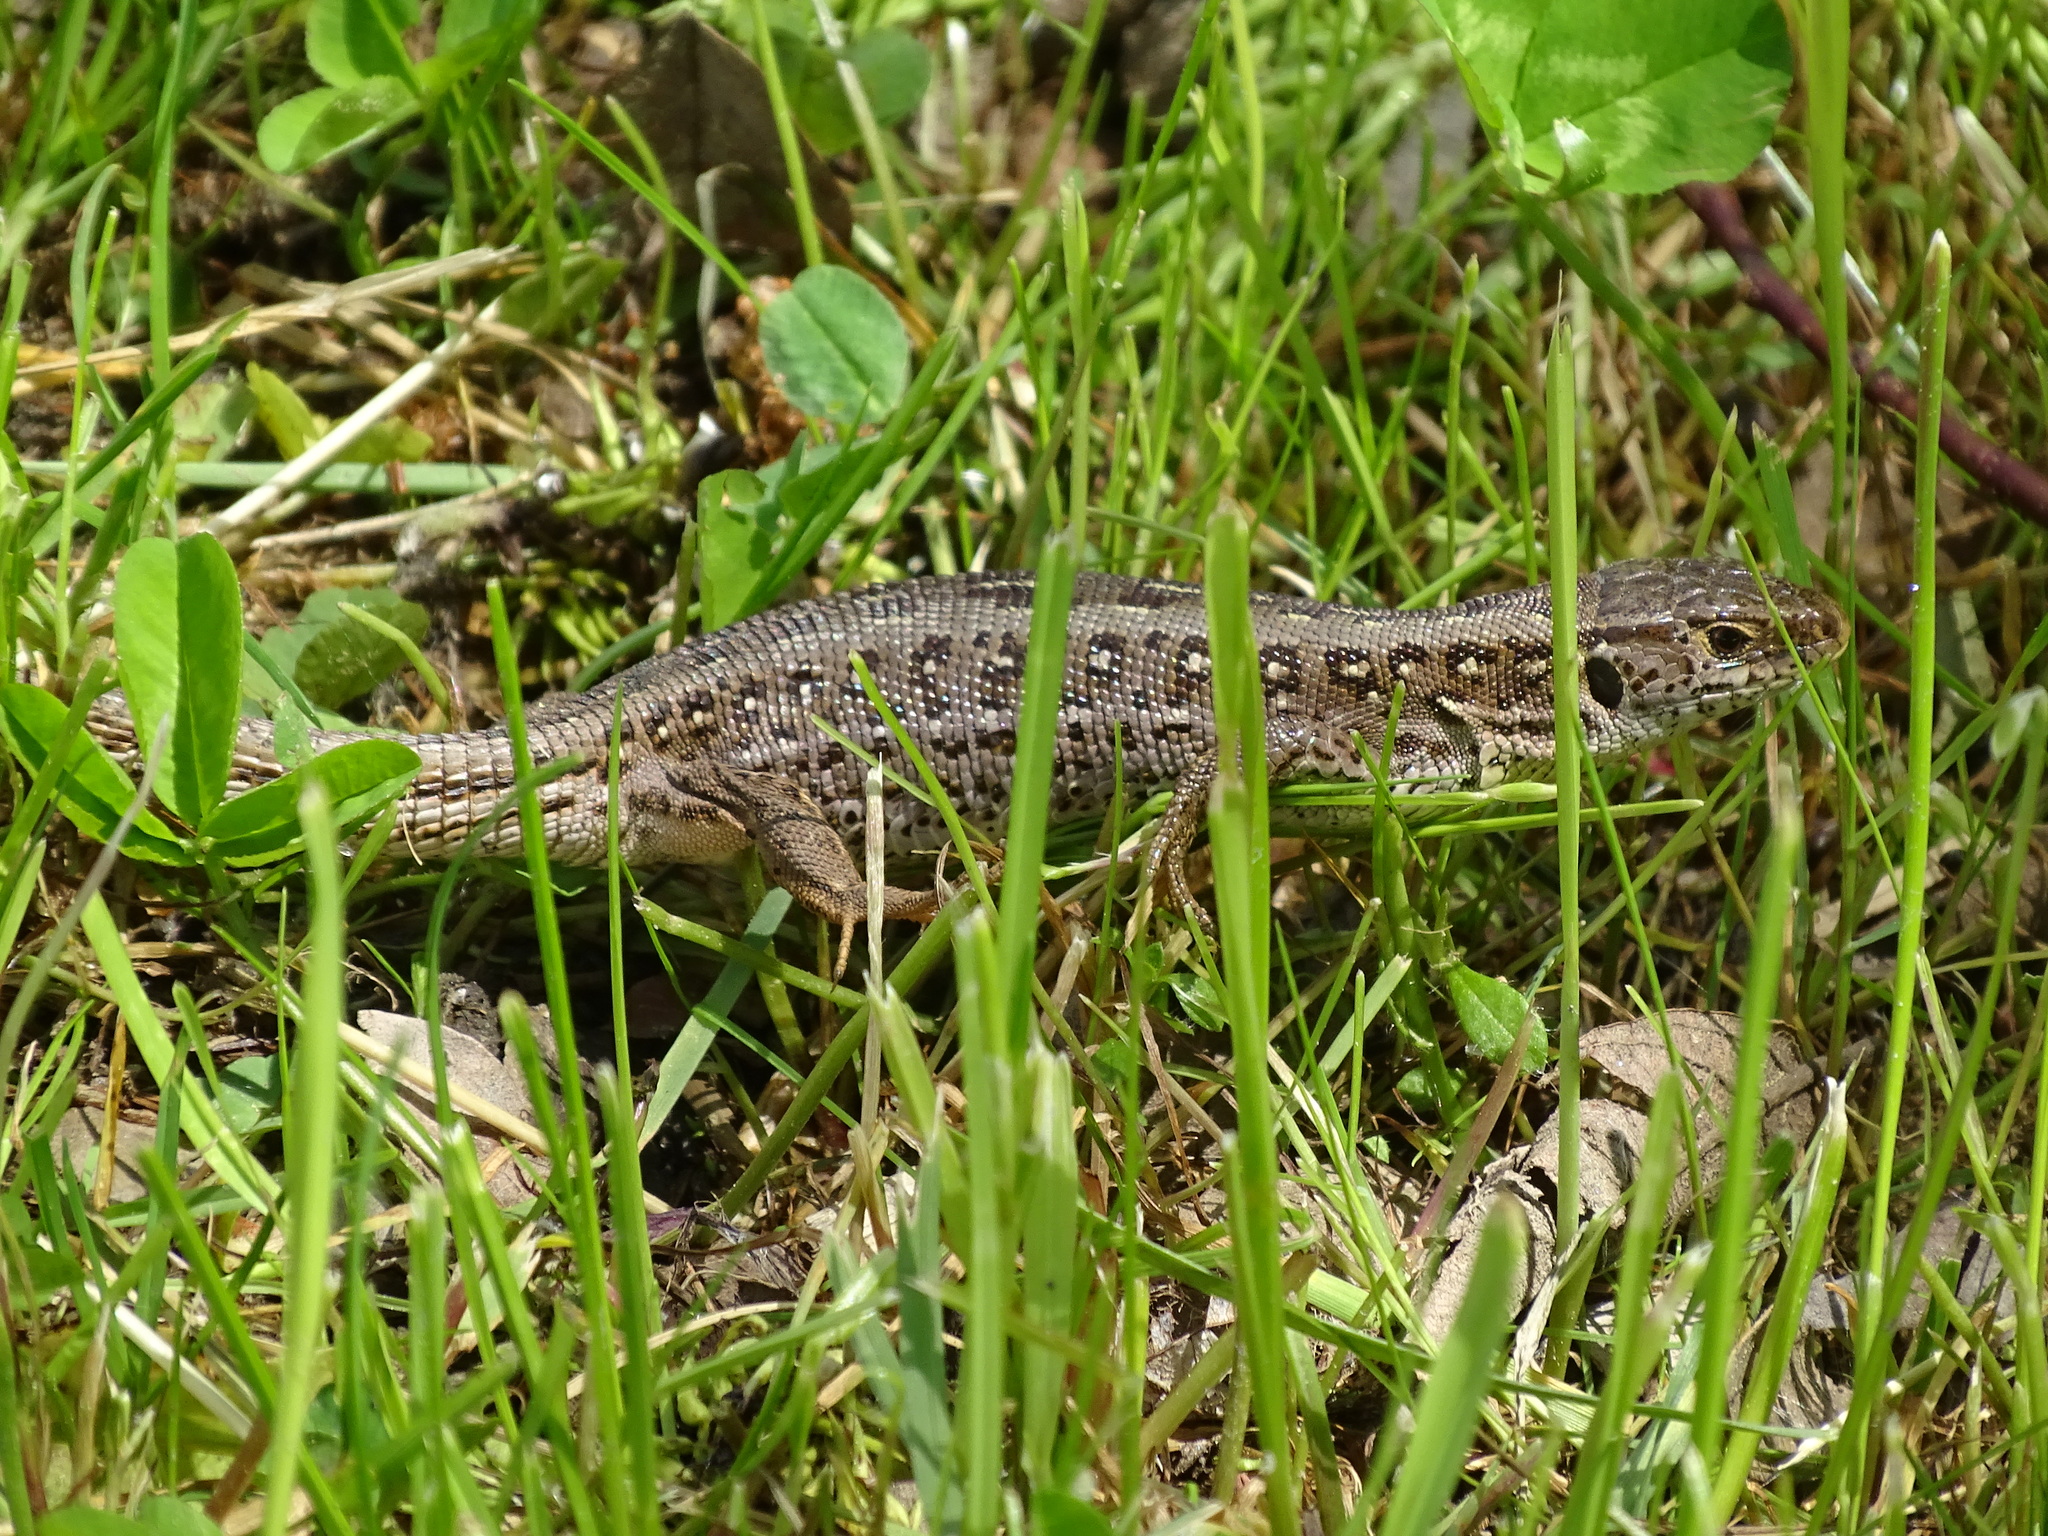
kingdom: Animalia
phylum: Chordata
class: Squamata
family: Lacertidae
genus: Lacerta
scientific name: Lacerta agilis
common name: Sand lizard
